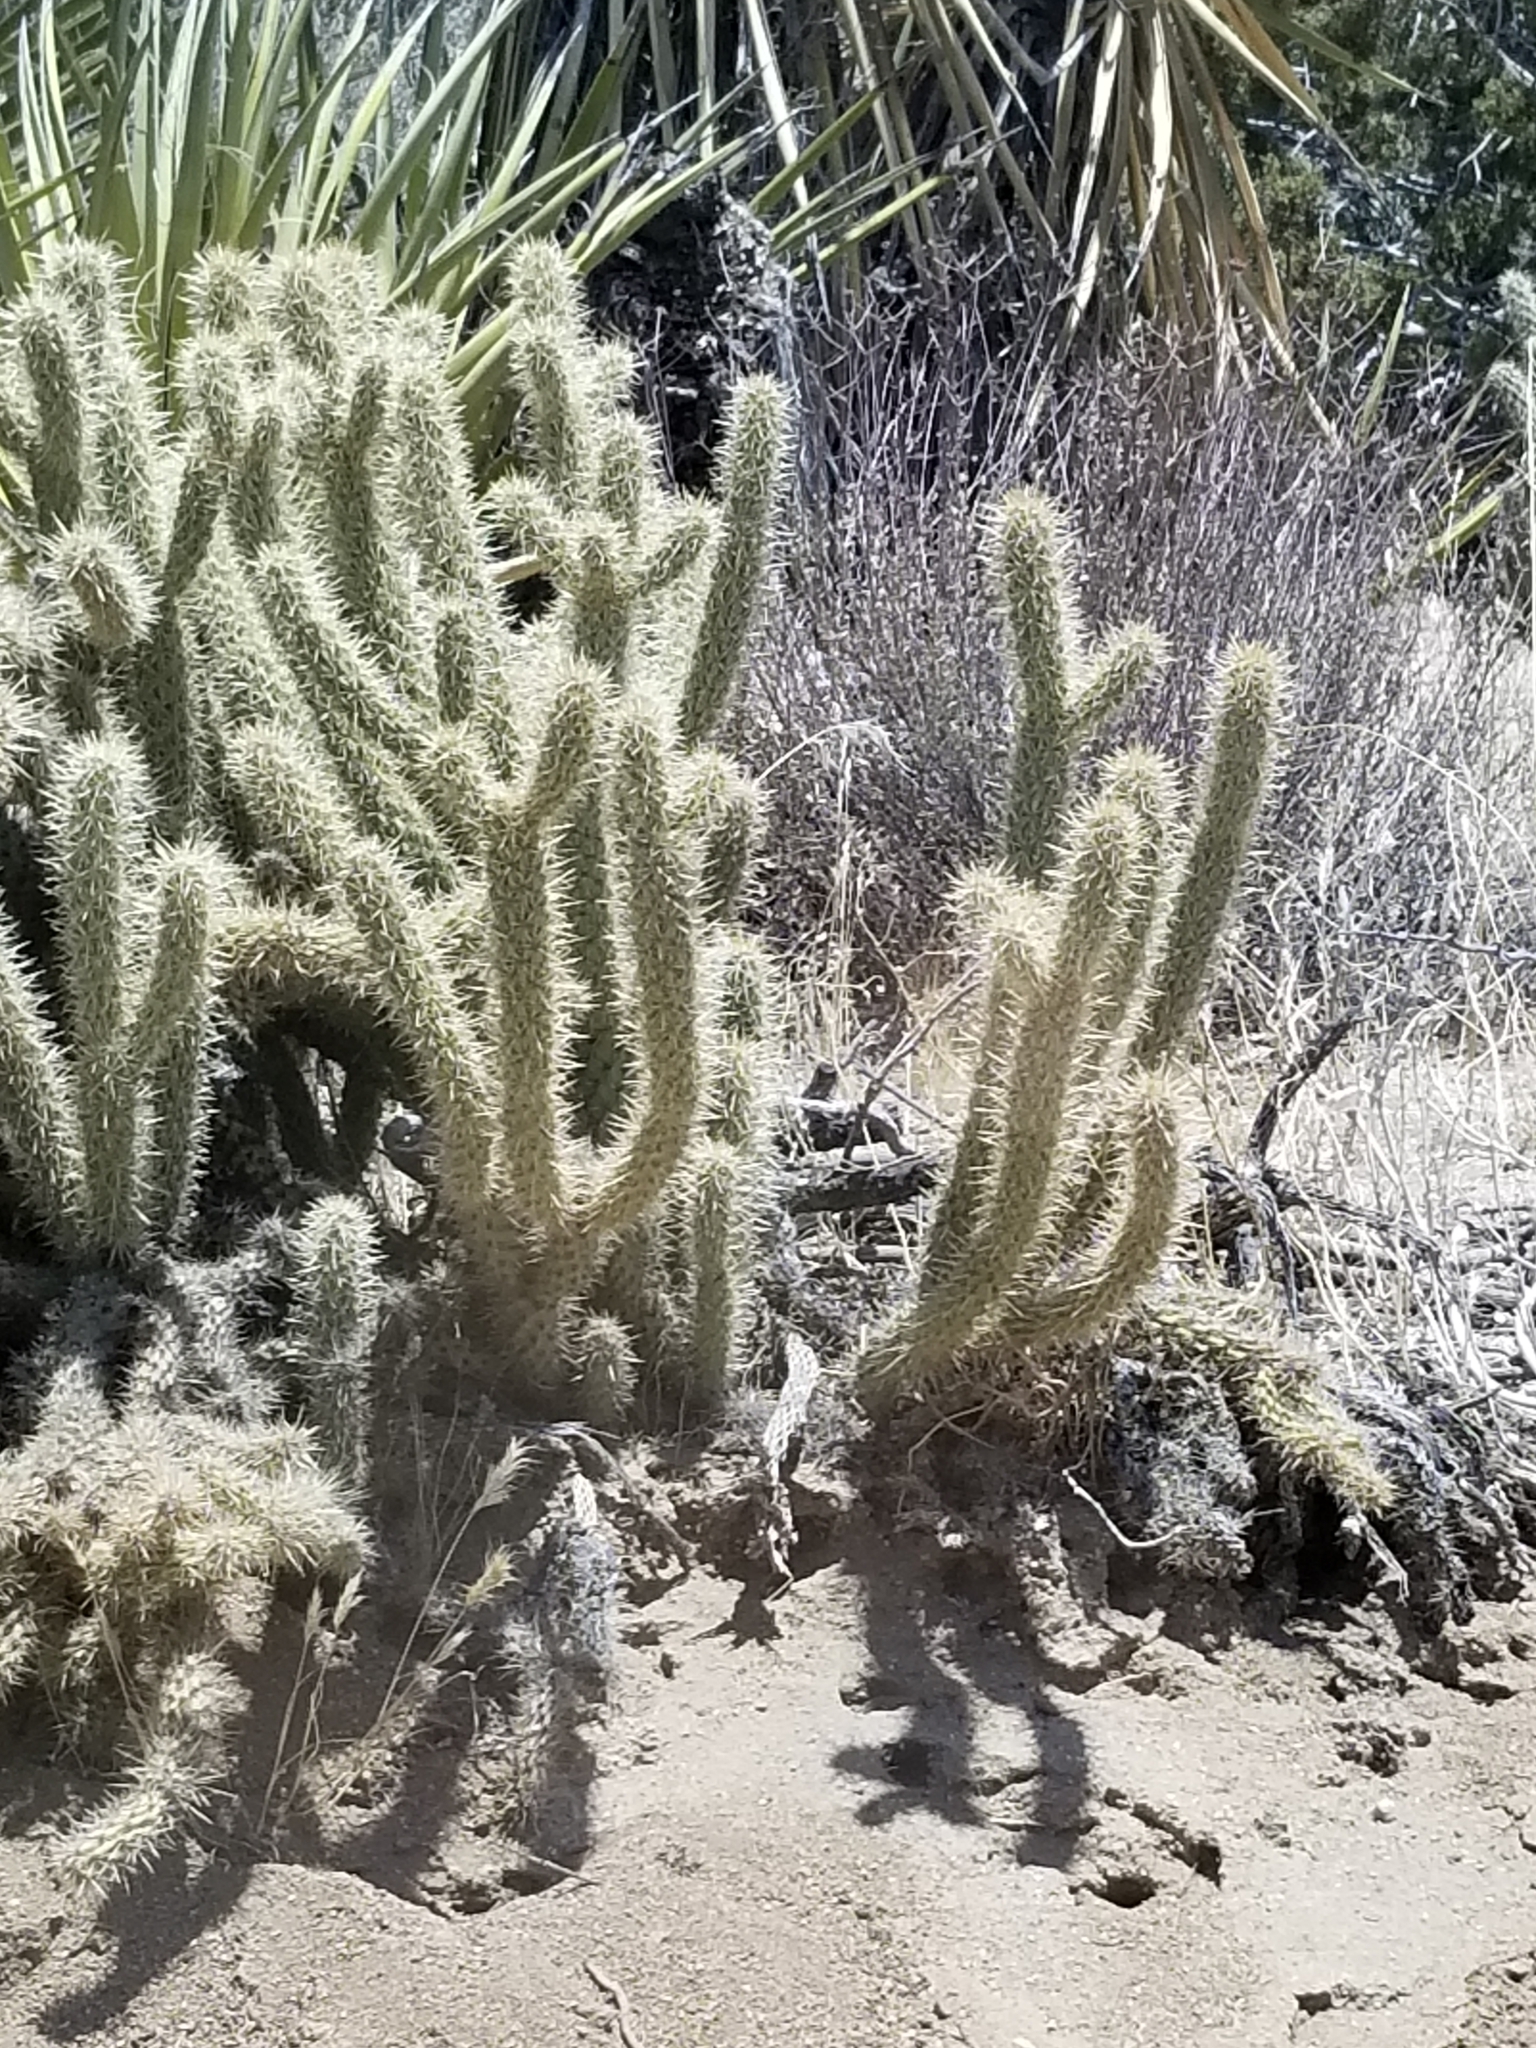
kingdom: Plantae
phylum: Tracheophyta
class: Magnoliopsida
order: Caryophyllales
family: Cactaceae
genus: Cylindropuntia
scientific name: Cylindropuntia ganderi
